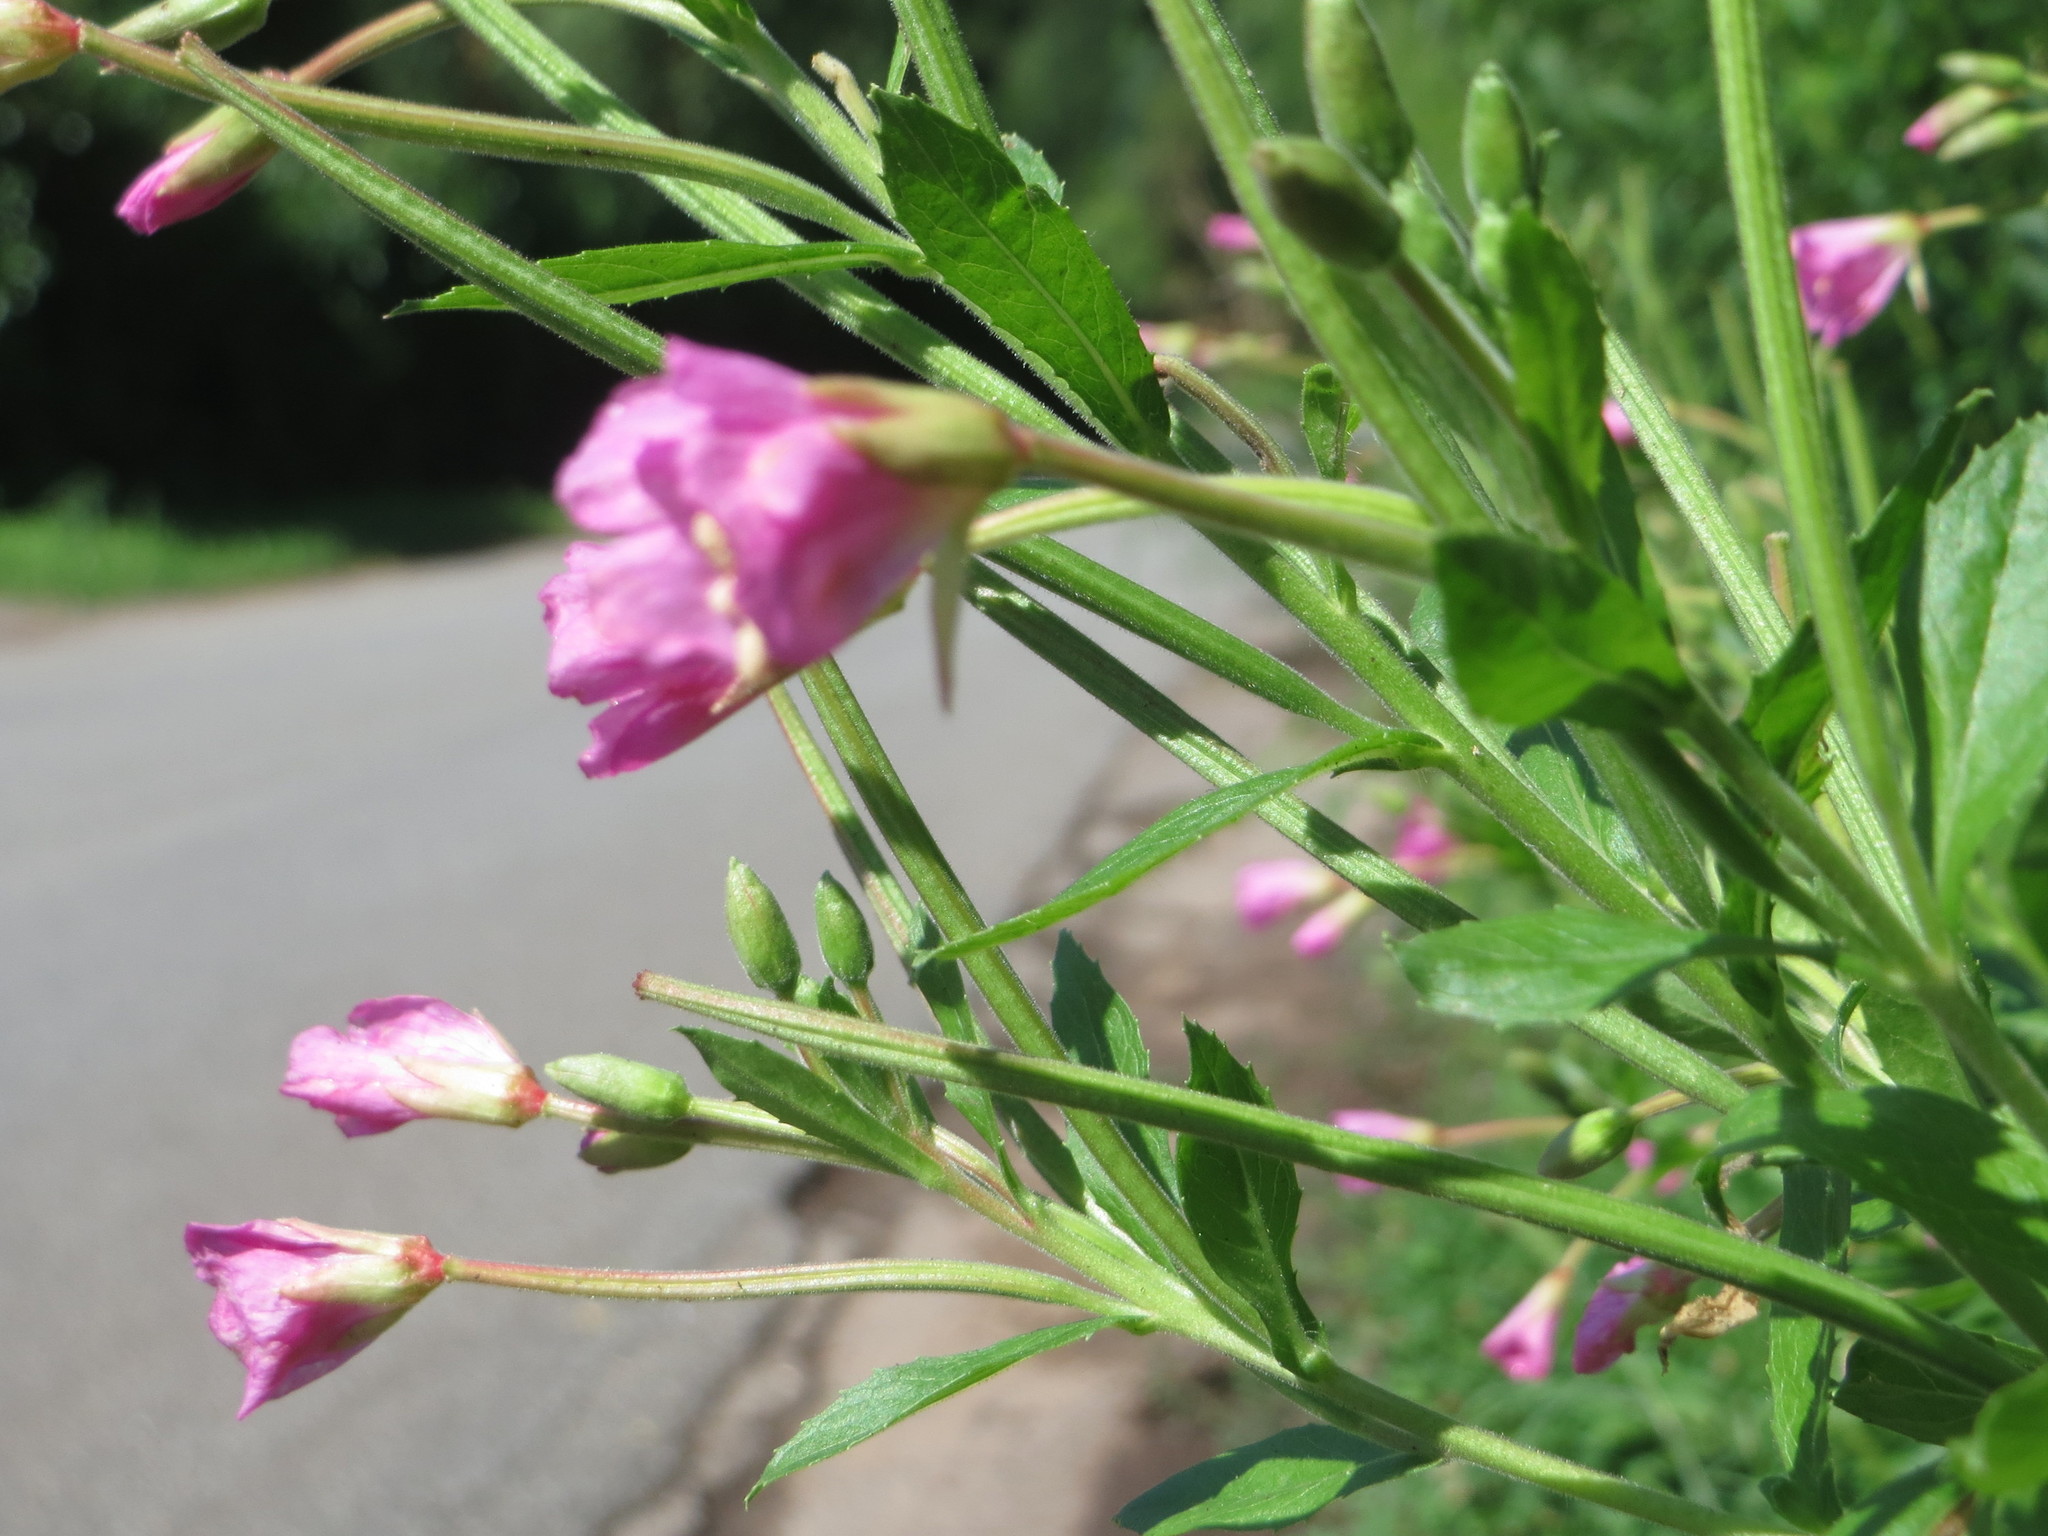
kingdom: Plantae
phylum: Tracheophyta
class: Magnoliopsida
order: Myrtales
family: Onagraceae
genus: Epilobium
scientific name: Epilobium hirsutum
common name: Great willowherb
